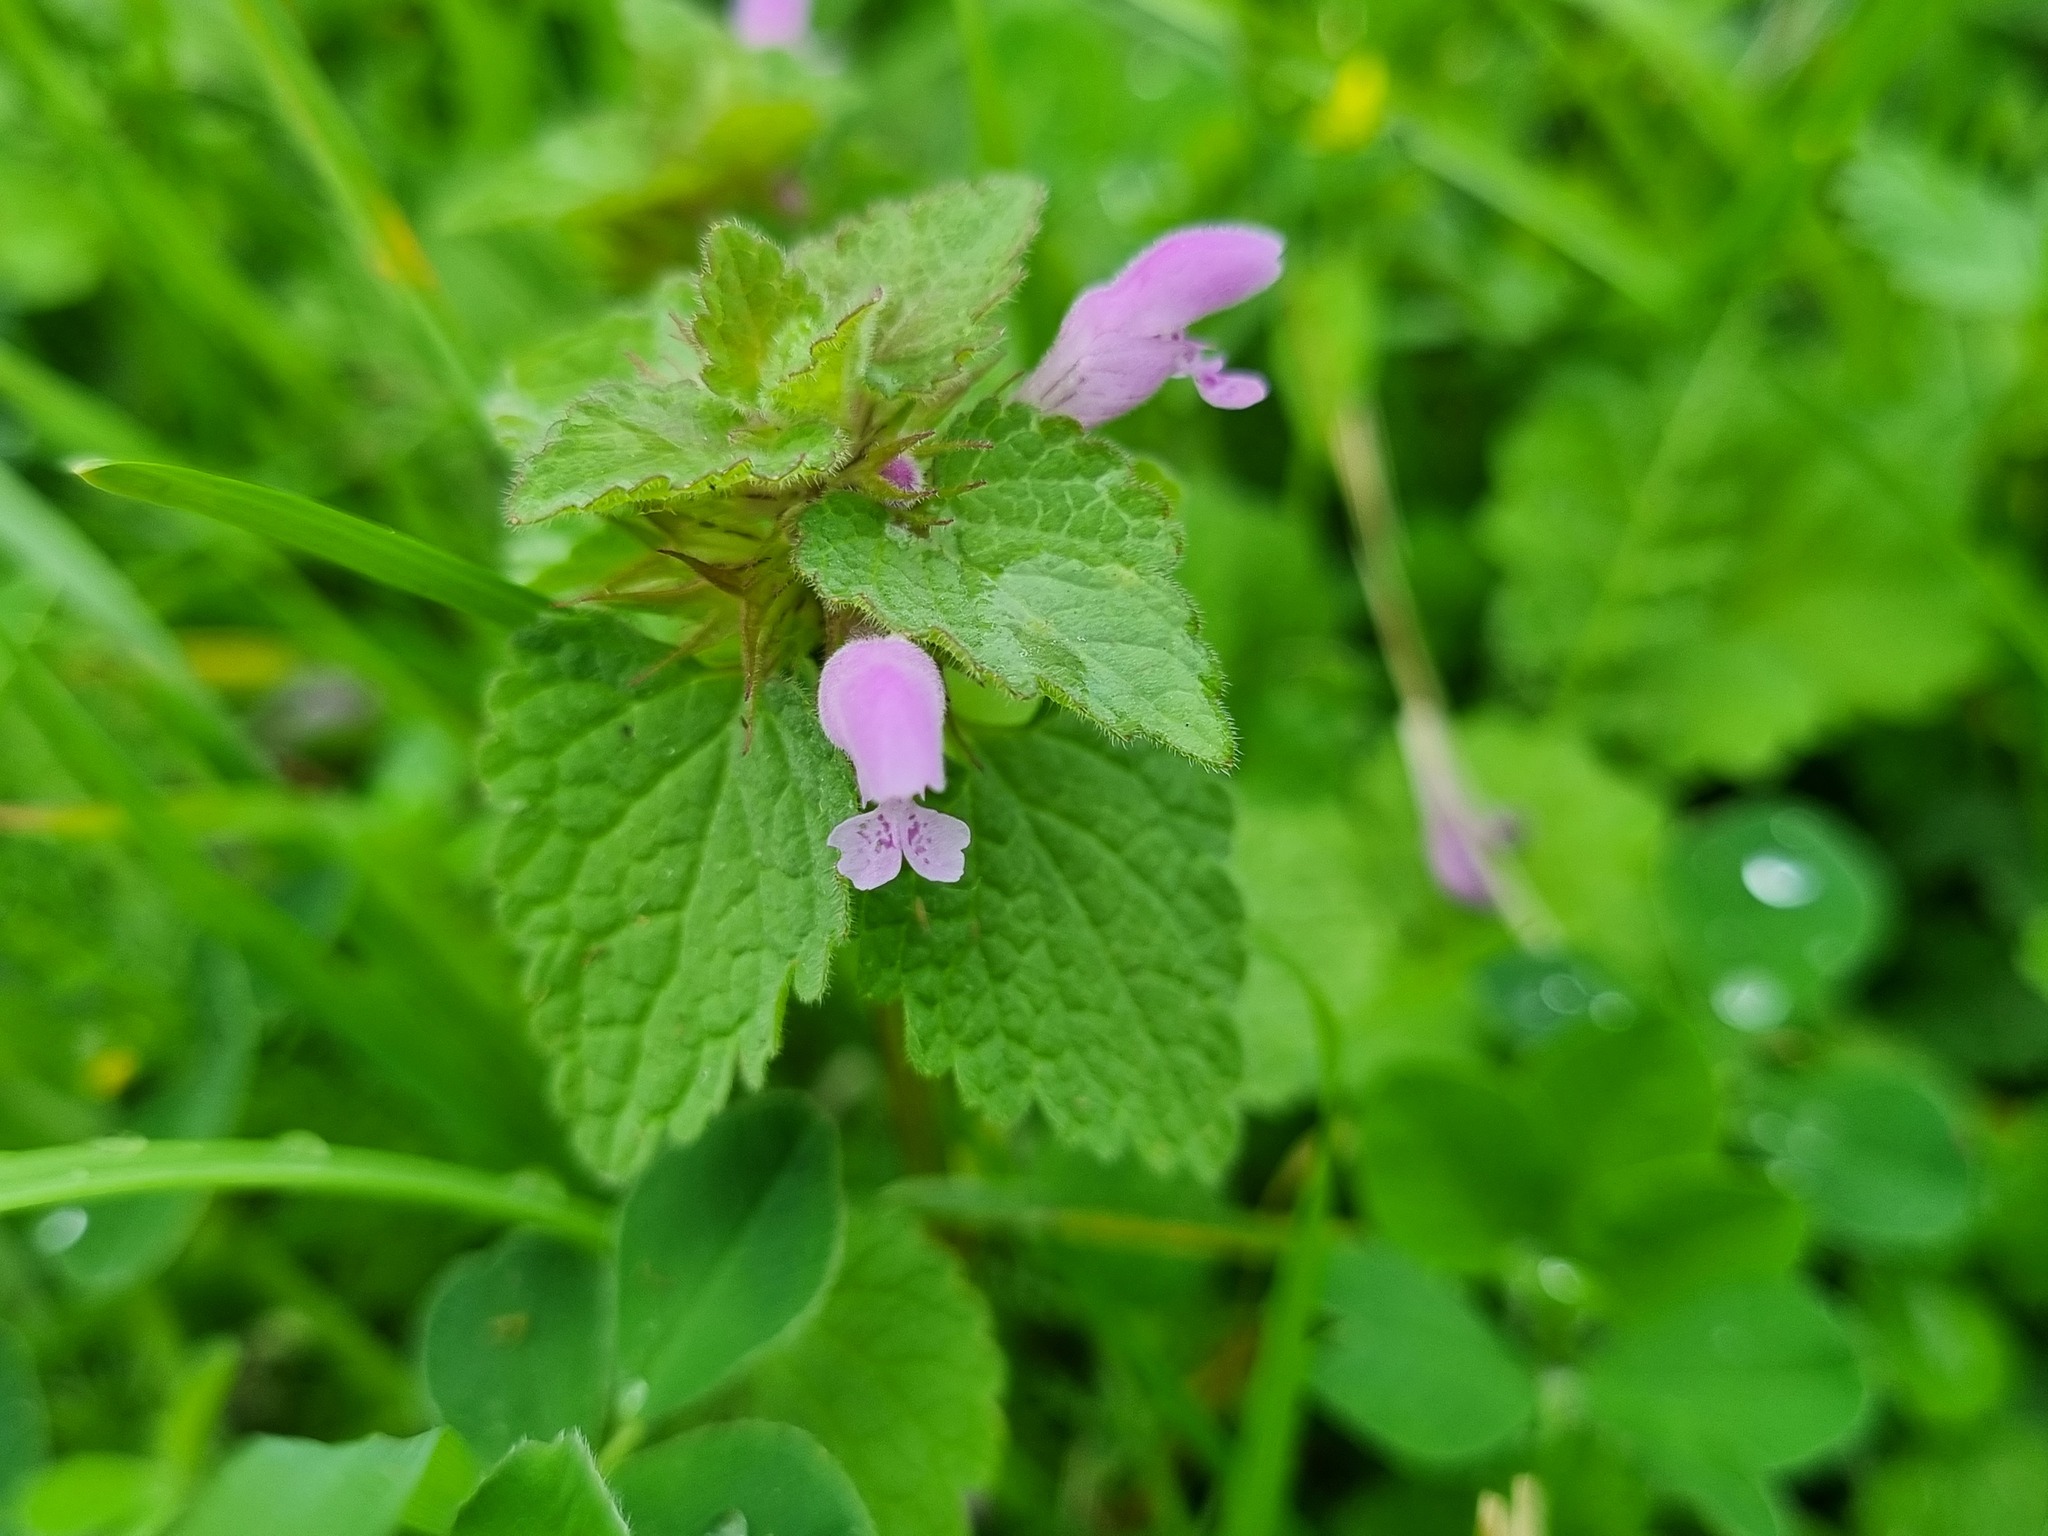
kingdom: Plantae
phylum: Tracheophyta
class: Magnoliopsida
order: Lamiales
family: Lamiaceae
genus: Lamium
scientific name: Lamium purpureum
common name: Red dead-nettle
